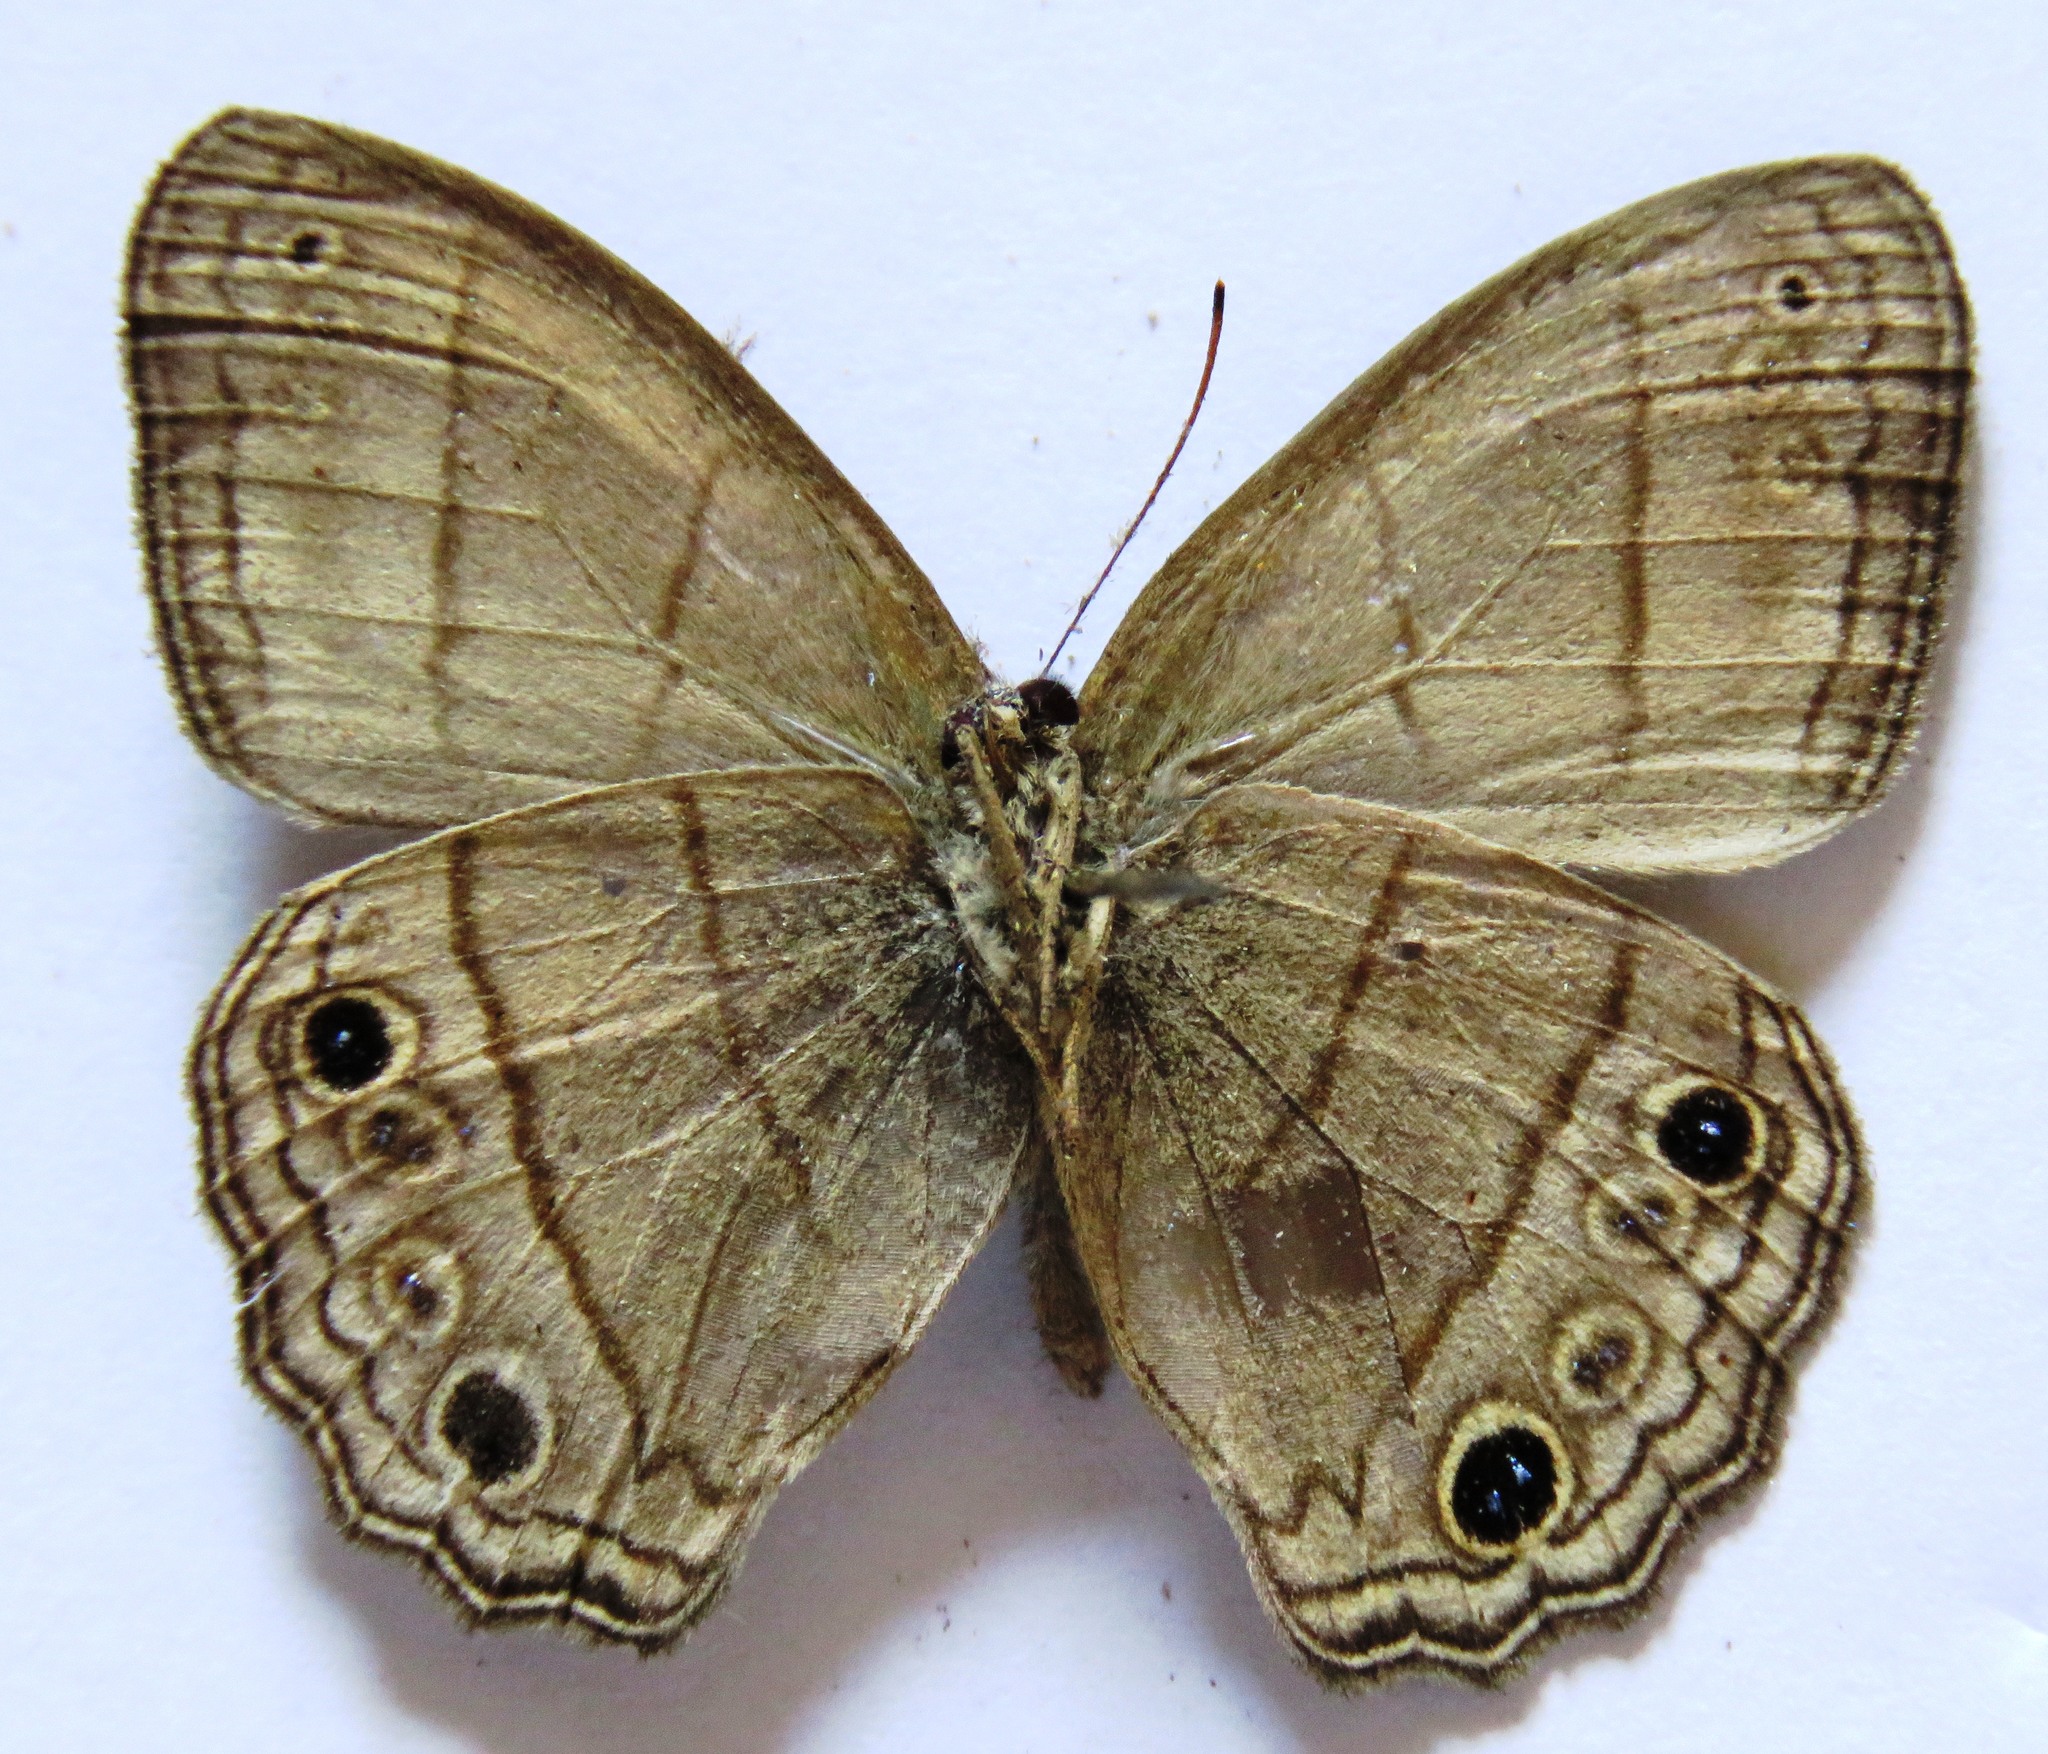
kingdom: Animalia
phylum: Arthropoda
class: Insecta
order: Lepidoptera
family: Nymphalidae
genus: Vareuptychia
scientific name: Vareuptychia similis
